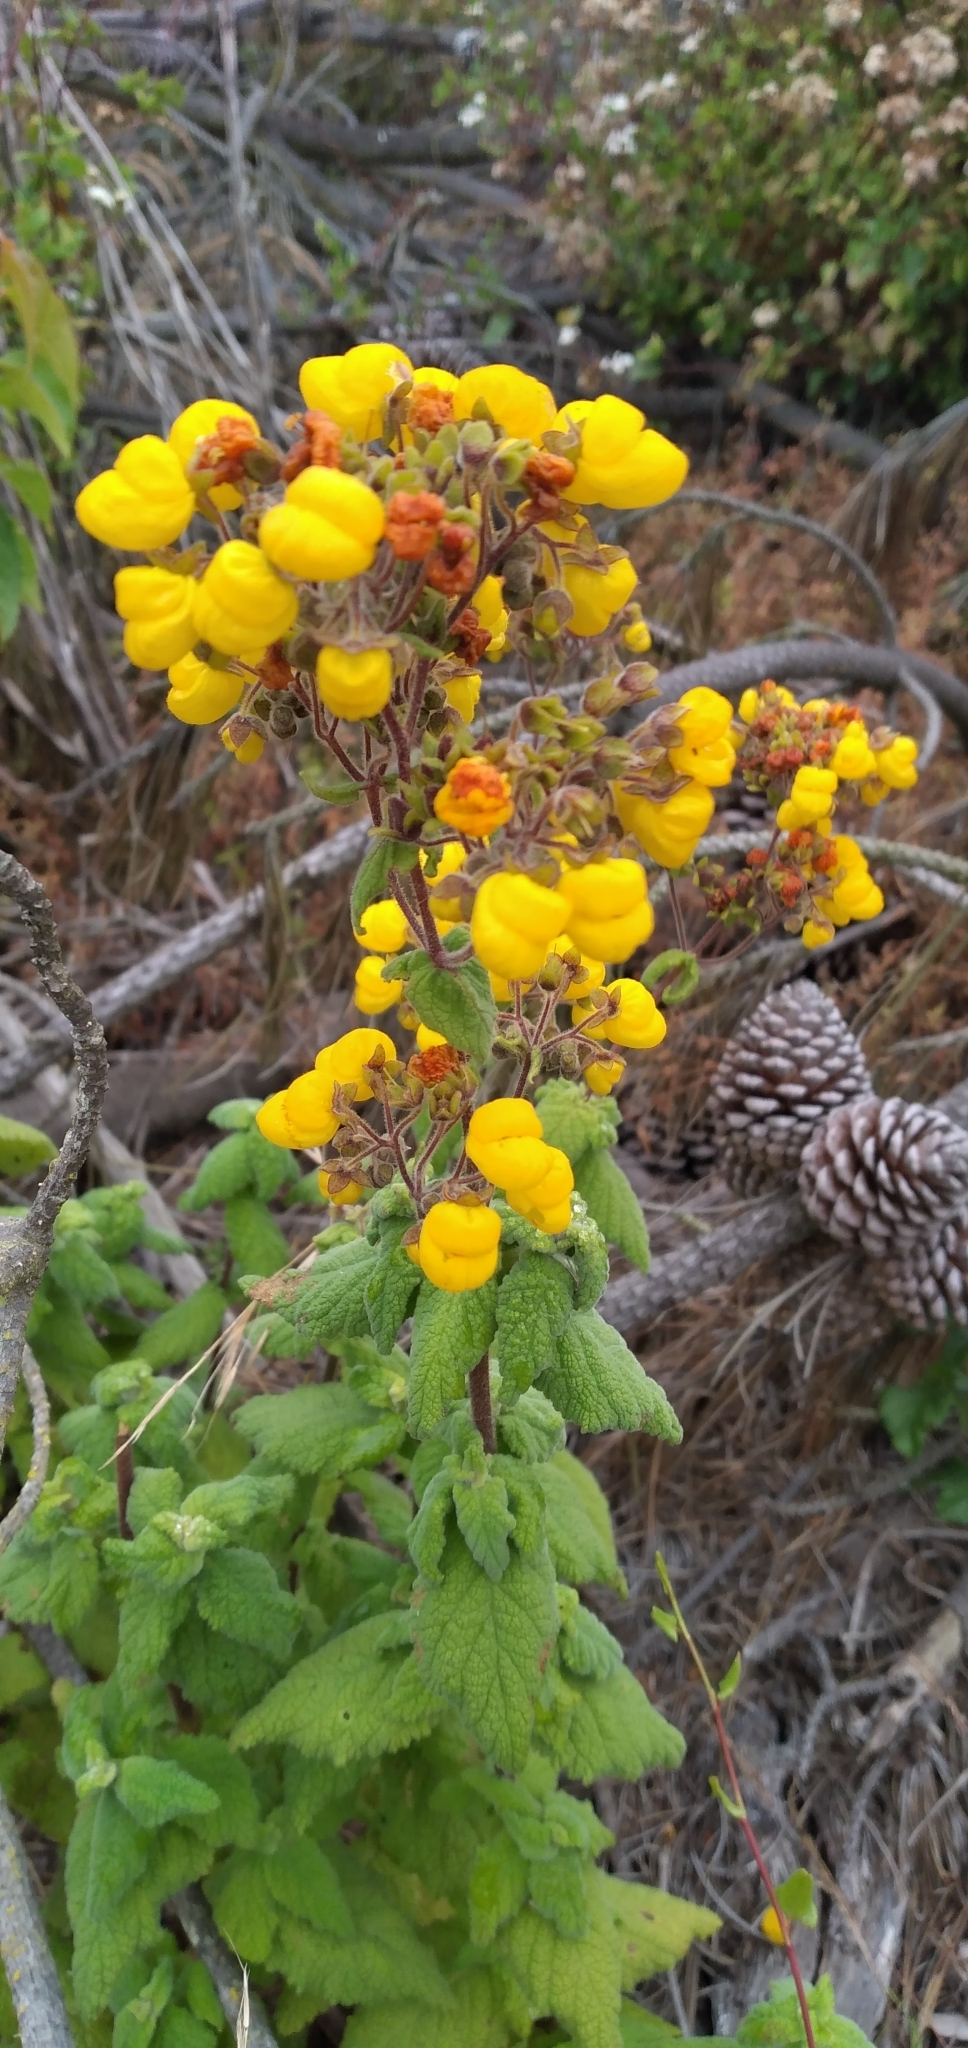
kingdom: Plantae
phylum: Tracheophyta
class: Magnoliopsida
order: Lamiales
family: Calceolariaceae
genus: Calceolaria
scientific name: Calceolaria integrifolia
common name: Bush slipperwort
